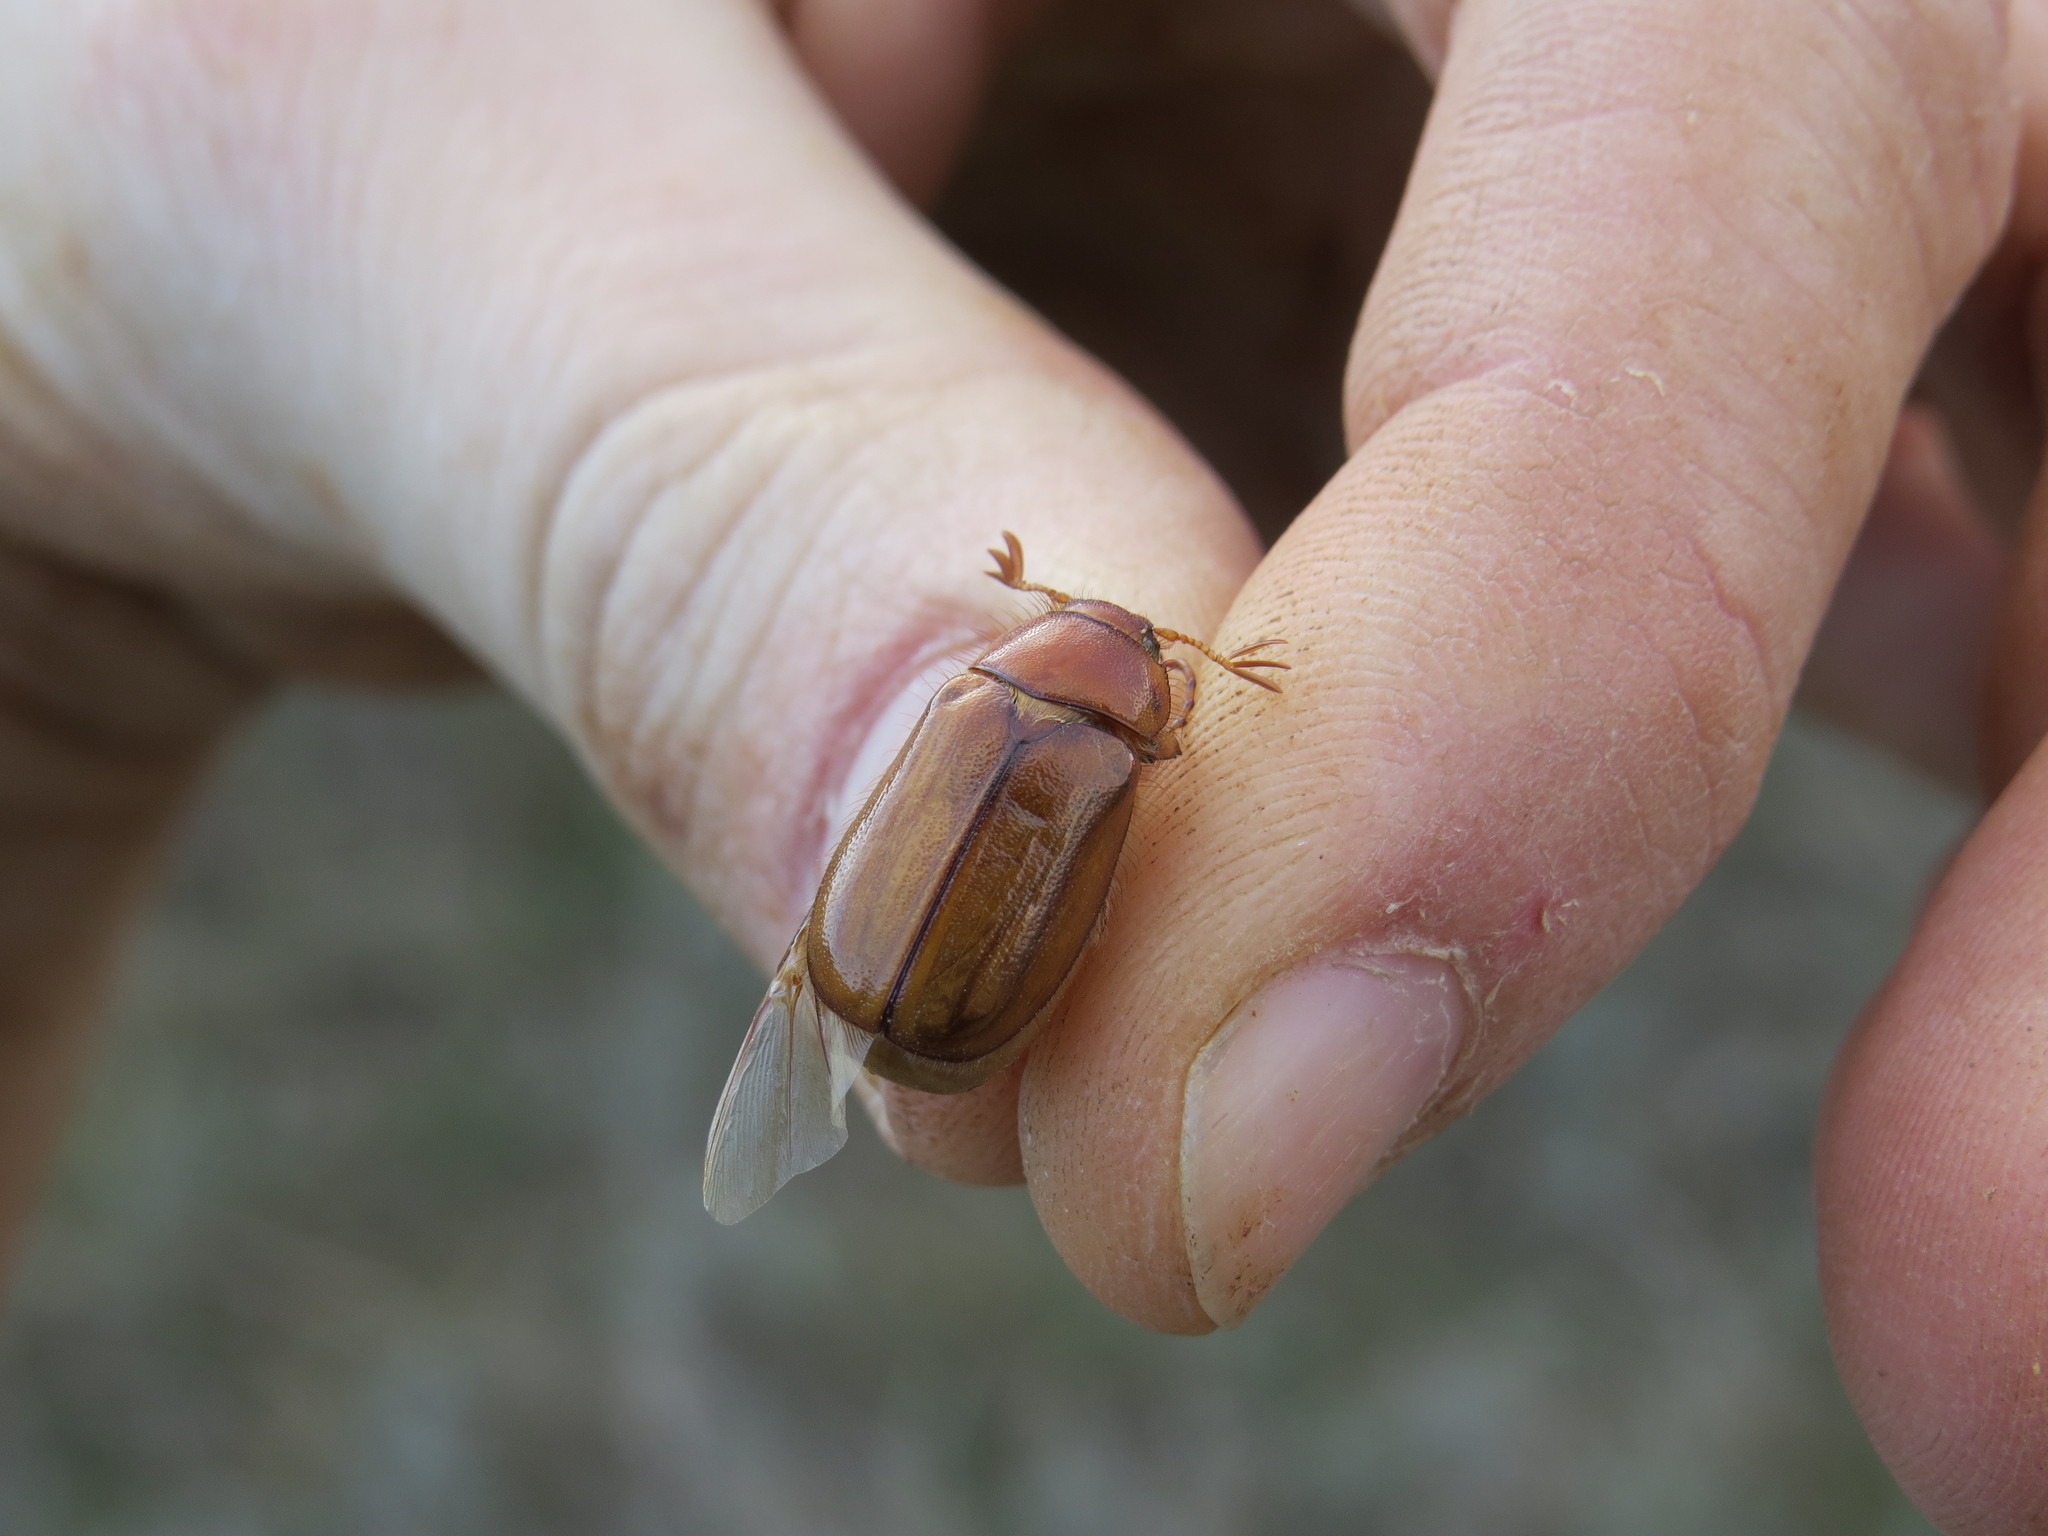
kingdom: Animalia
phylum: Arthropoda
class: Insecta
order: Coleoptera
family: Scarabaeidae
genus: Amphimallon
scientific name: Amphimallon solstitiale
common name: Summer chafer
